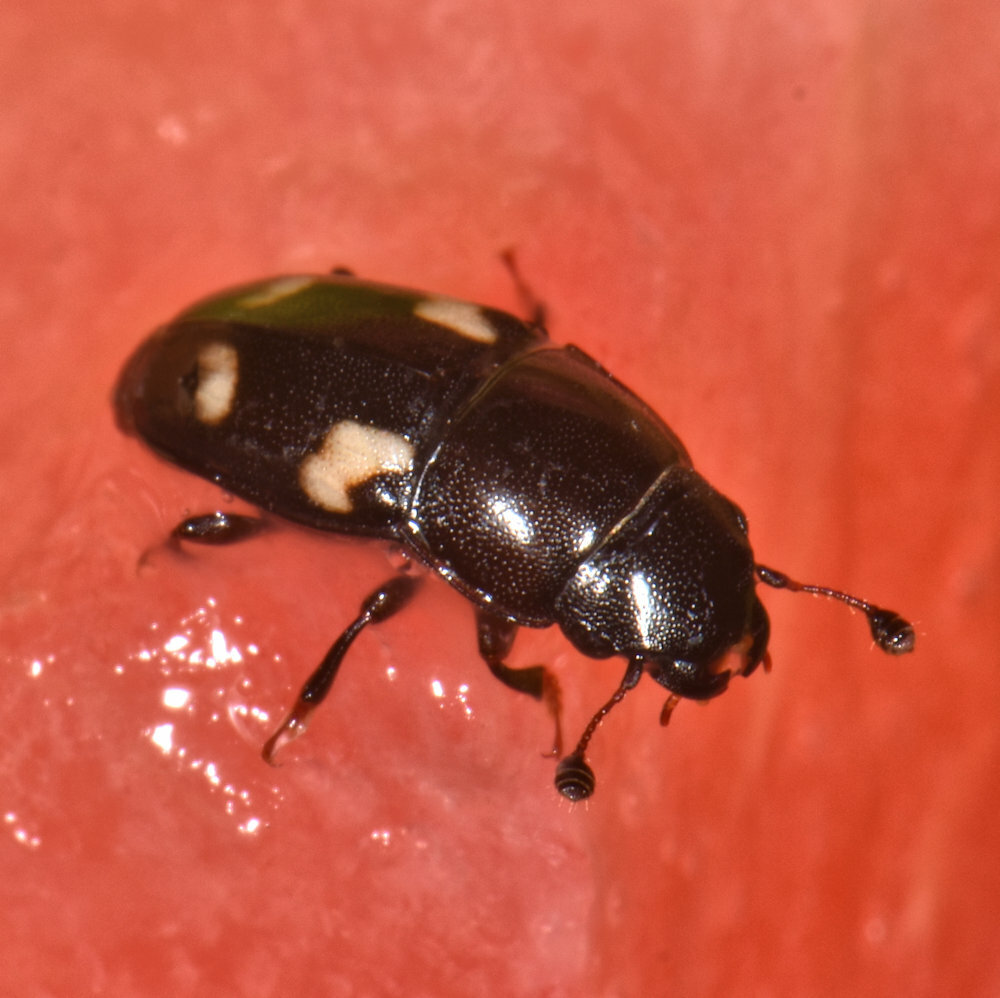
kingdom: Animalia
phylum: Arthropoda
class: Insecta
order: Coleoptera
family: Nitidulidae
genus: Glischrochilus
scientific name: Glischrochilus quadrisignatus
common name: Picnic beetle
